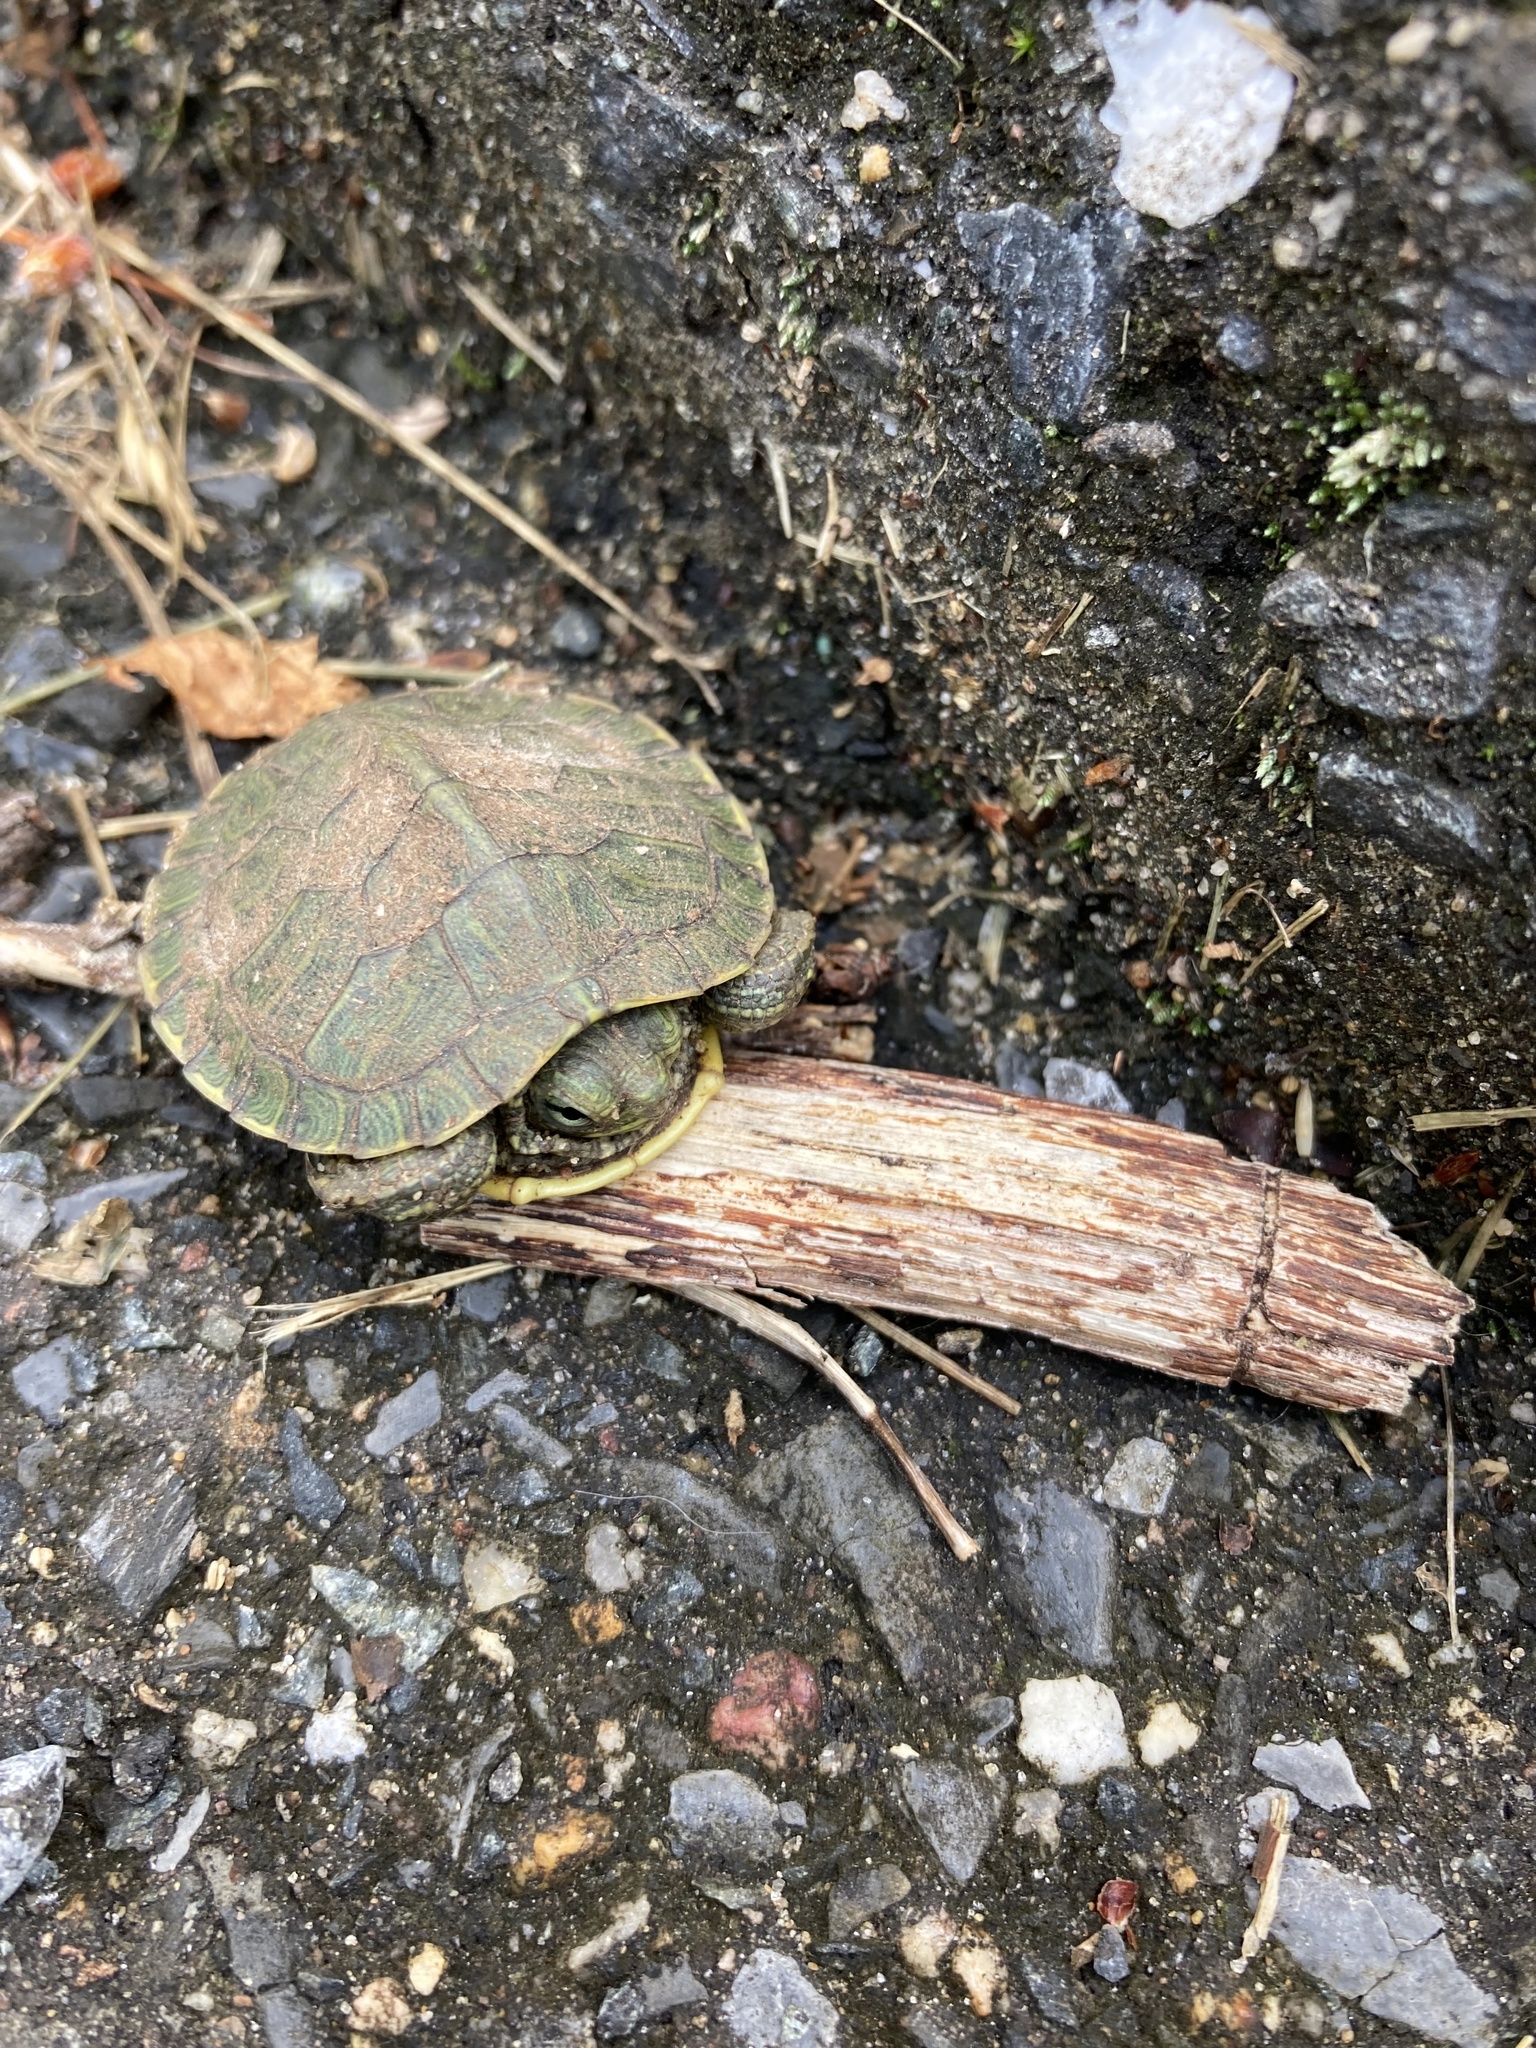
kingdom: Animalia
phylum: Chordata
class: Testudines
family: Emydidae
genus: Trachemys
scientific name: Trachemys scripta
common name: Slider
